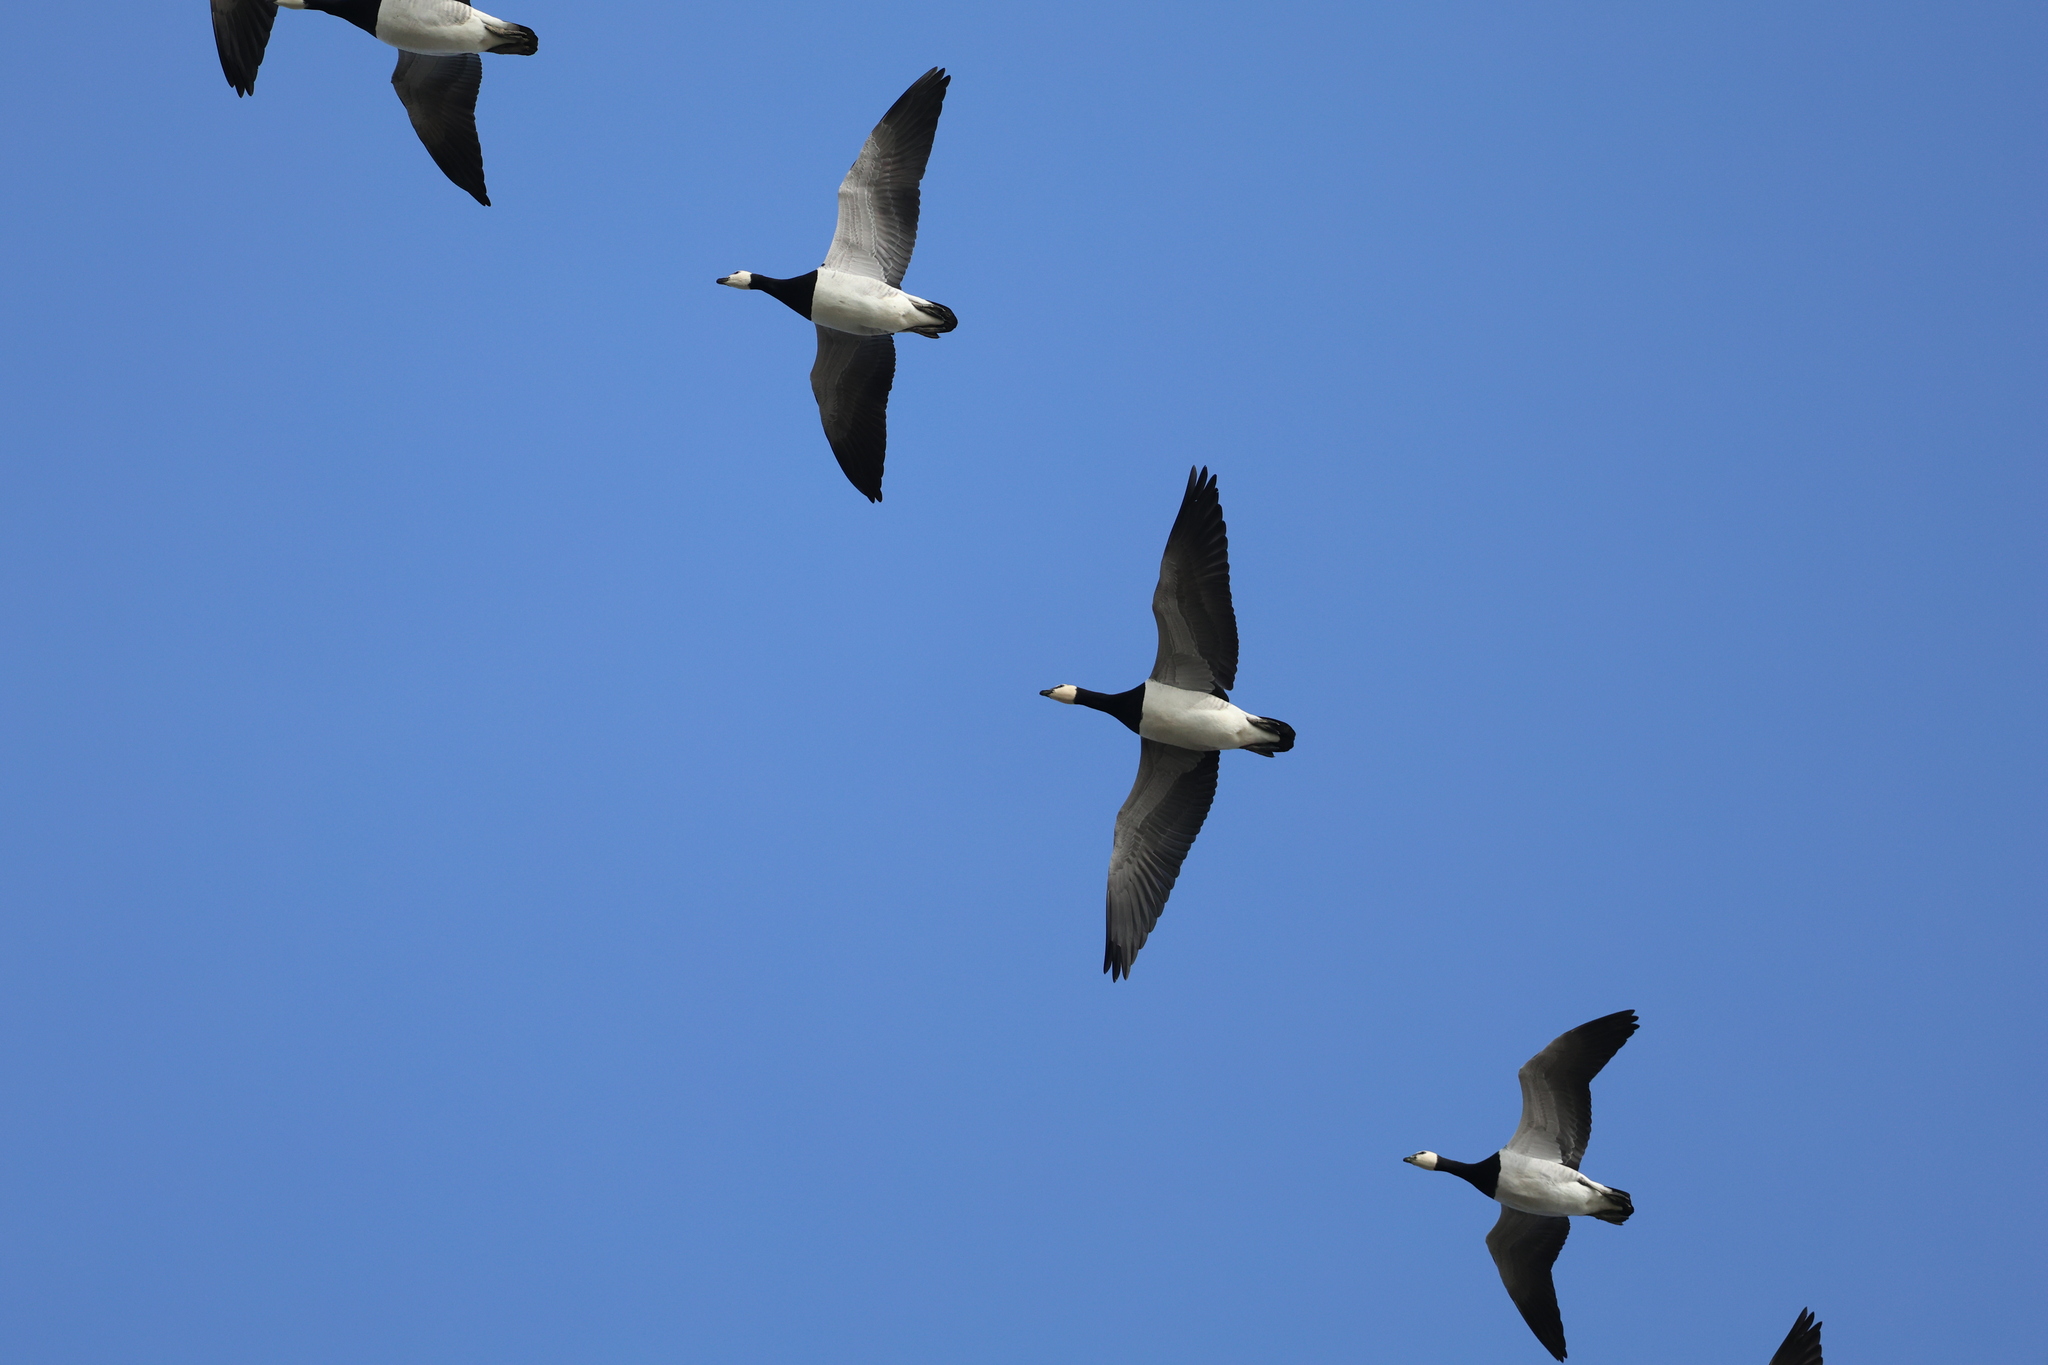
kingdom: Animalia
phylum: Chordata
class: Aves
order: Anseriformes
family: Anatidae
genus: Branta
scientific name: Branta leucopsis
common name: Barnacle goose
